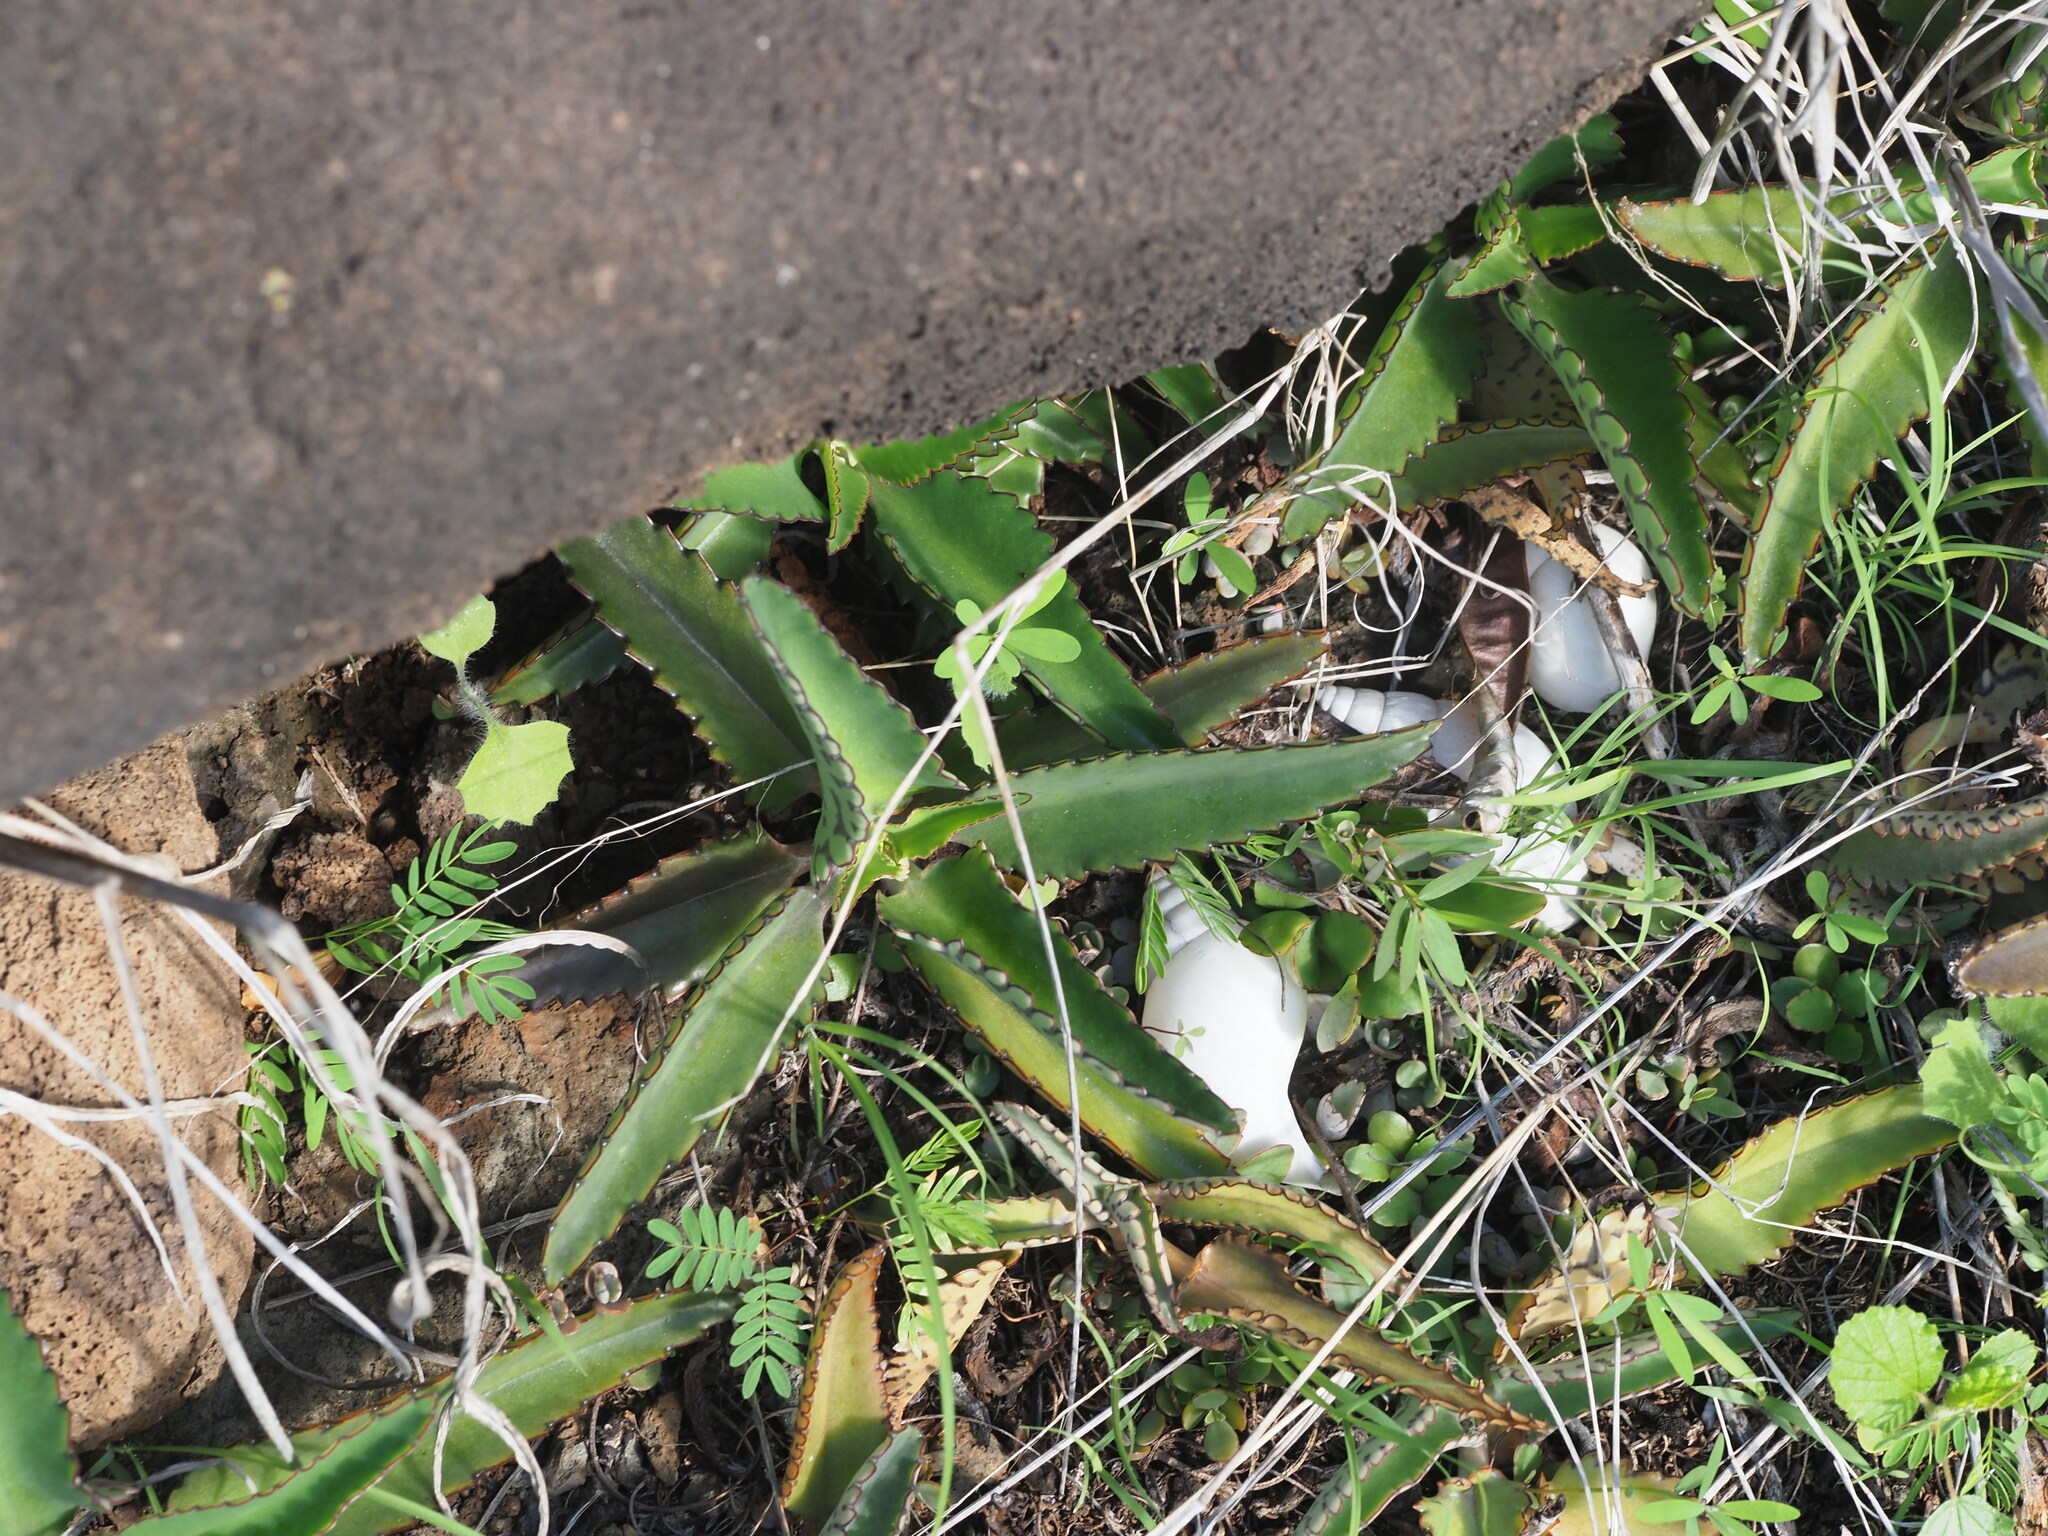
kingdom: Plantae
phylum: Tracheophyta
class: Magnoliopsida
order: Saxifragales
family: Crassulaceae
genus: Kalanchoe
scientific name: Kalanchoe daigremontiana
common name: Devil's backbone
